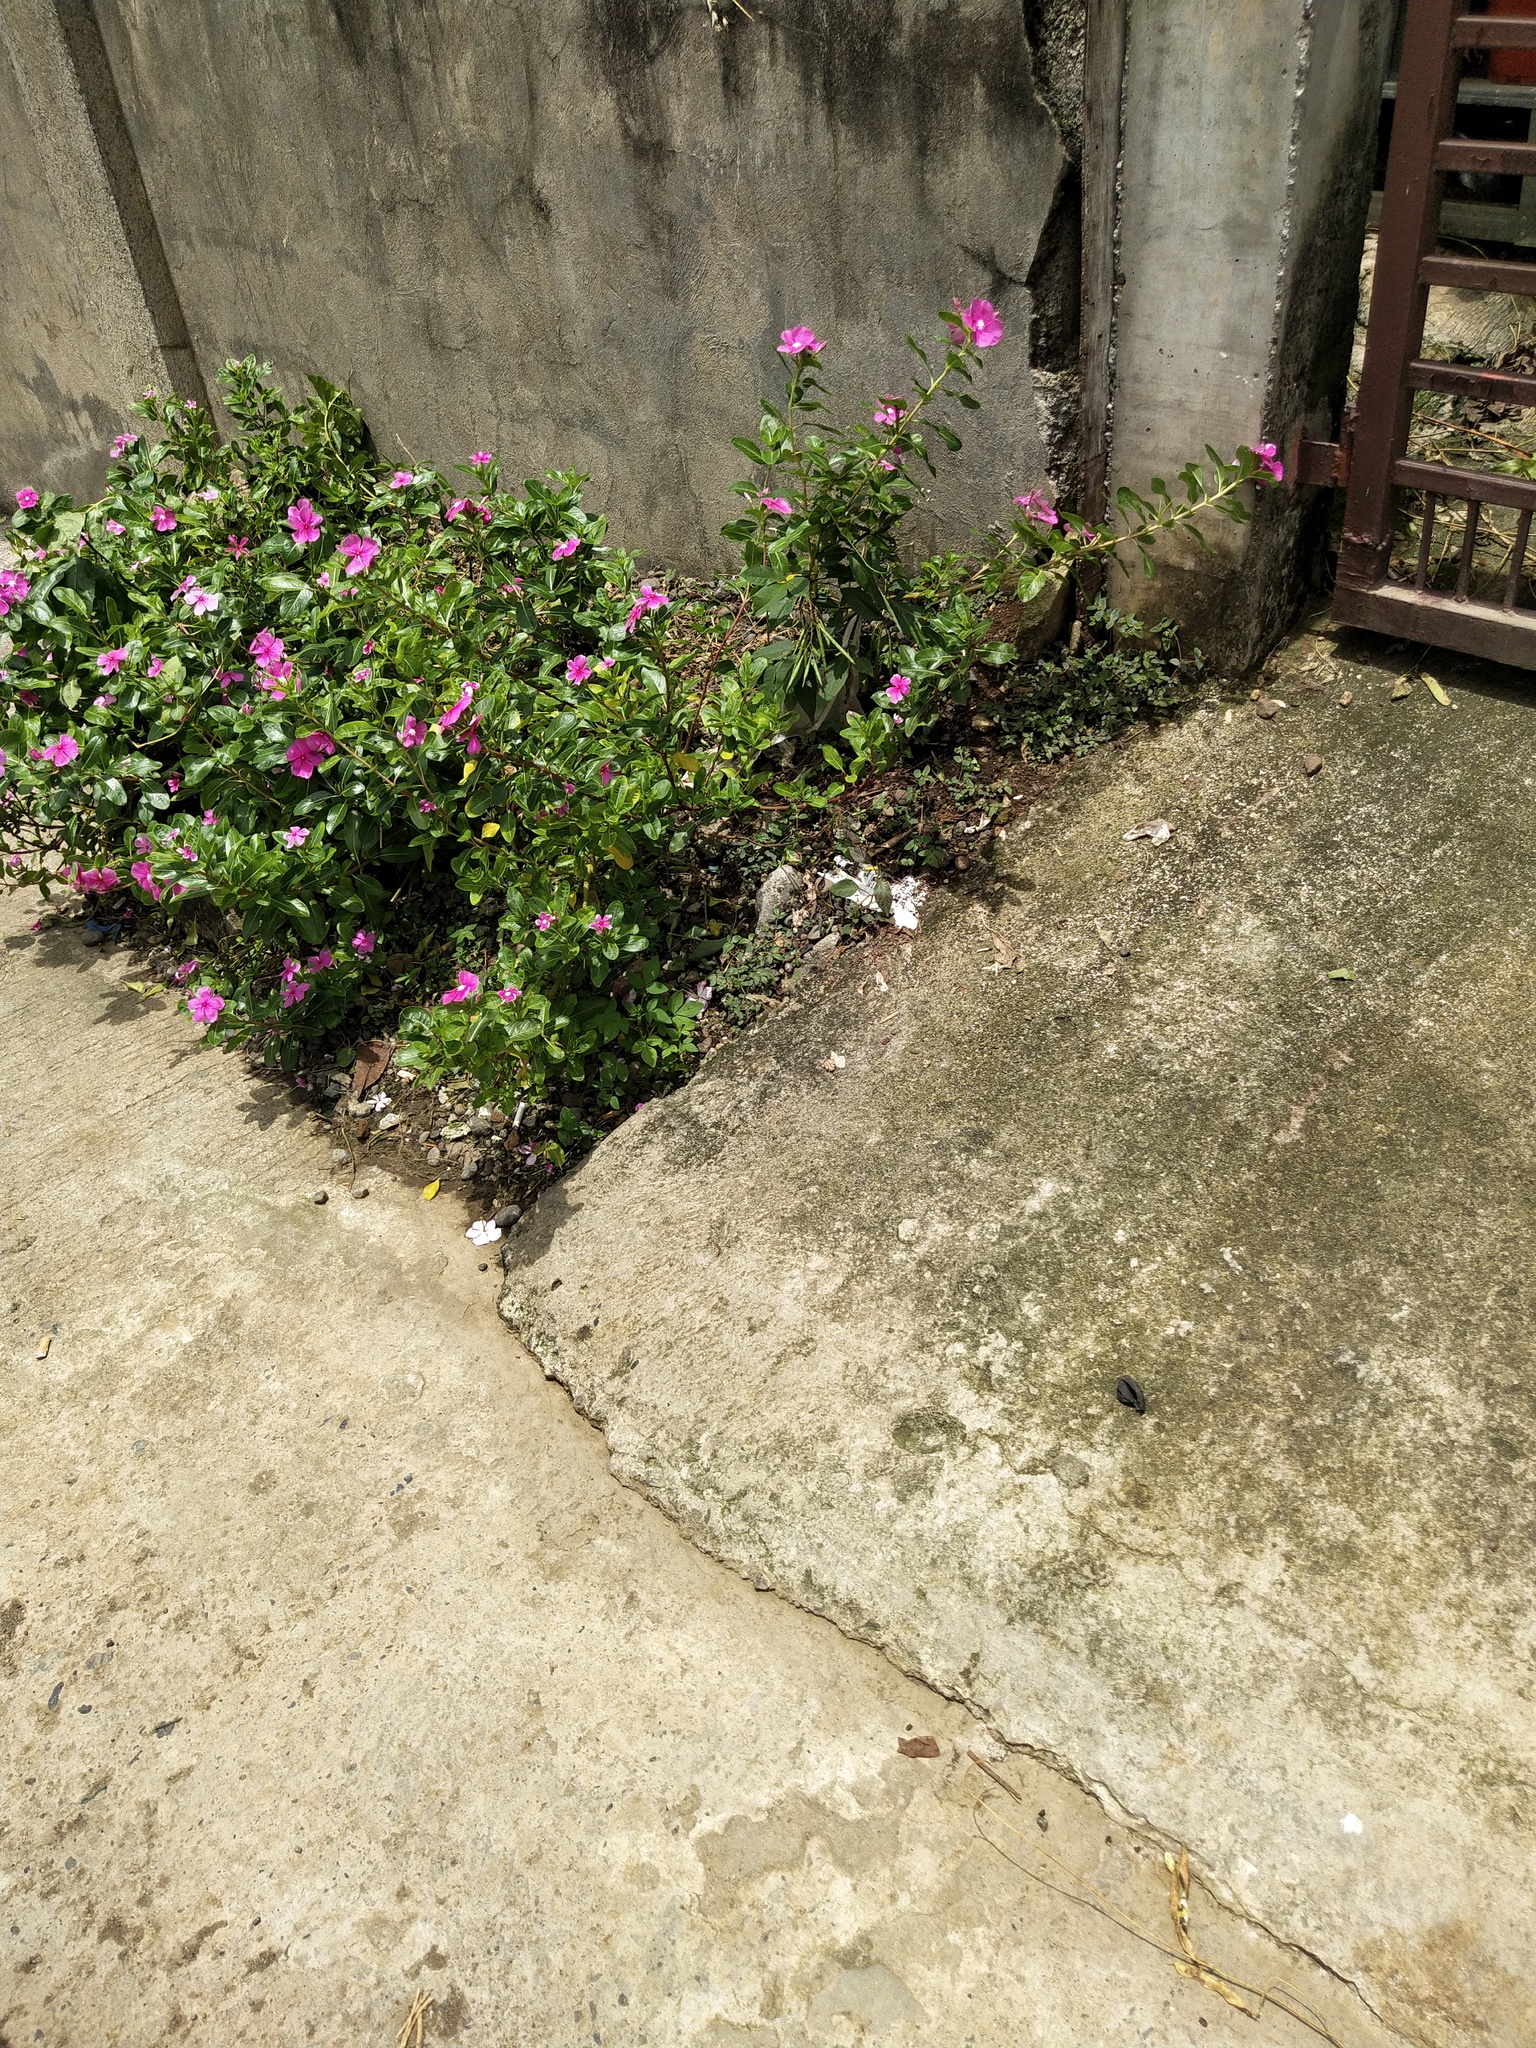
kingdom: Plantae
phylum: Tracheophyta
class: Magnoliopsida
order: Gentianales
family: Apocynaceae
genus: Catharanthus
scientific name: Catharanthus roseus
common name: Madagascar periwinkle
